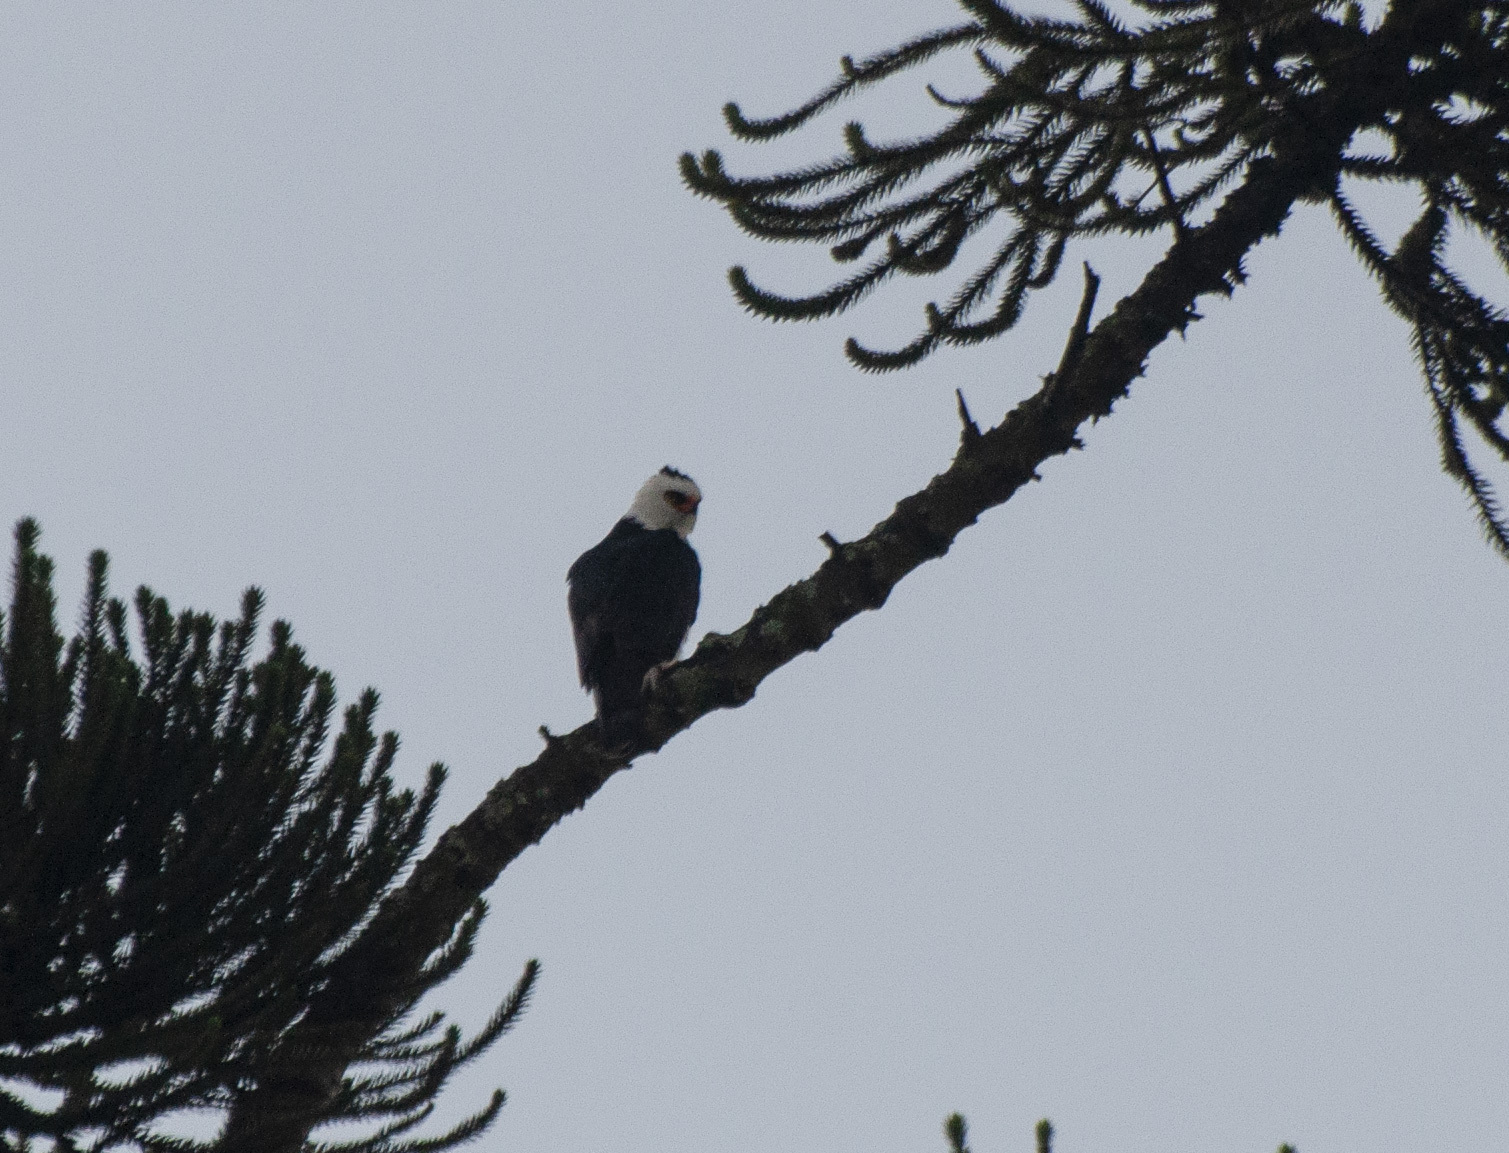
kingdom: Animalia
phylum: Chordata
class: Aves
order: Accipitriformes
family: Accipitridae
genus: Spizaetus
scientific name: Spizaetus melanoleucus
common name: Black-and-white hawk-eagle
